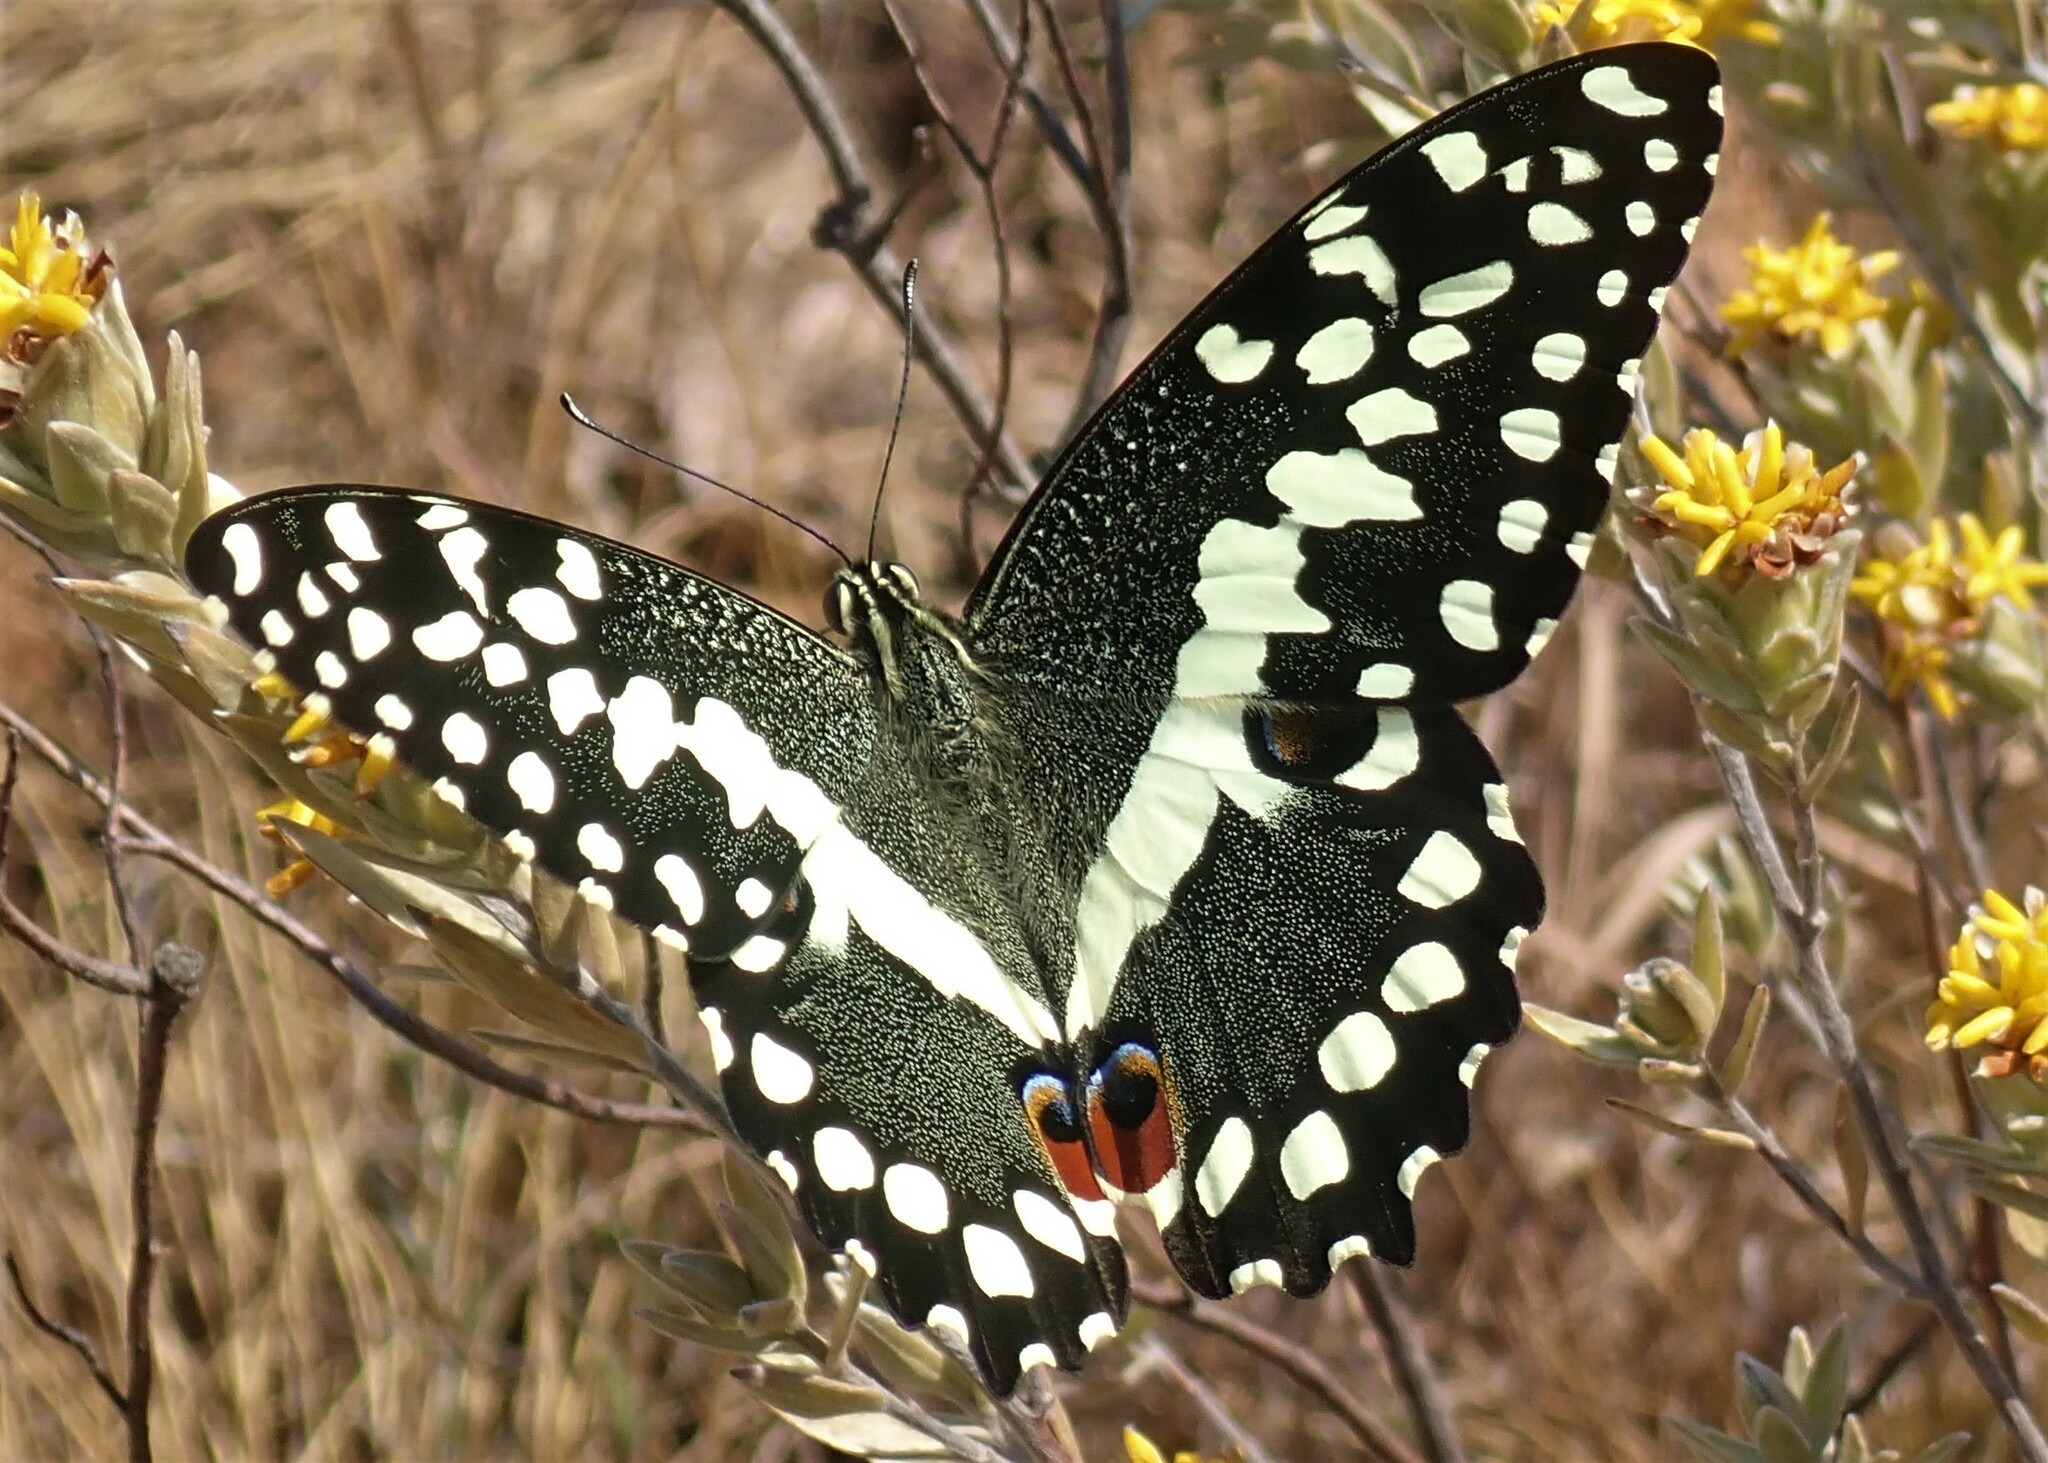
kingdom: Animalia
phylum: Arthropoda
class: Insecta
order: Lepidoptera
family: Papilionidae
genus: Papilio
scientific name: Papilio demodocus
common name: Christmas butterfly
